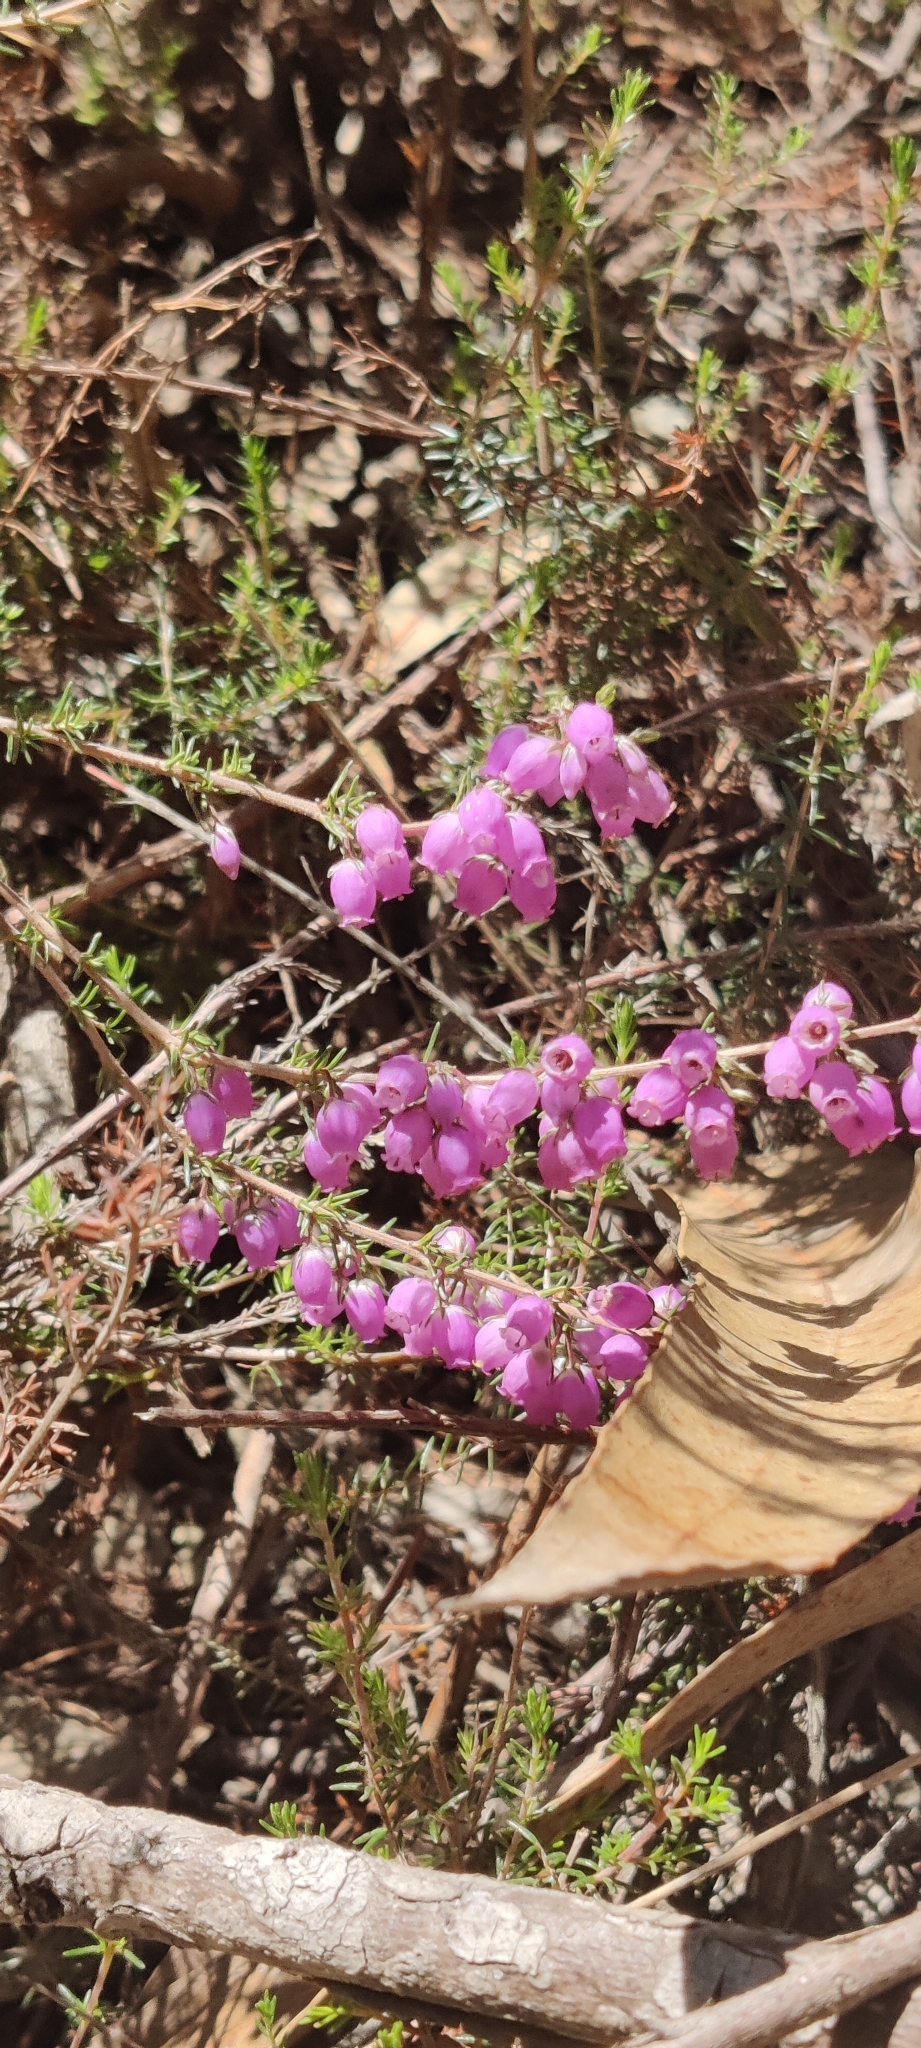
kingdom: Plantae
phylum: Tracheophyta
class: Magnoliopsida
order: Ericales
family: Ericaceae
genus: Erica
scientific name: Erica cinerea
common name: Bell heather
